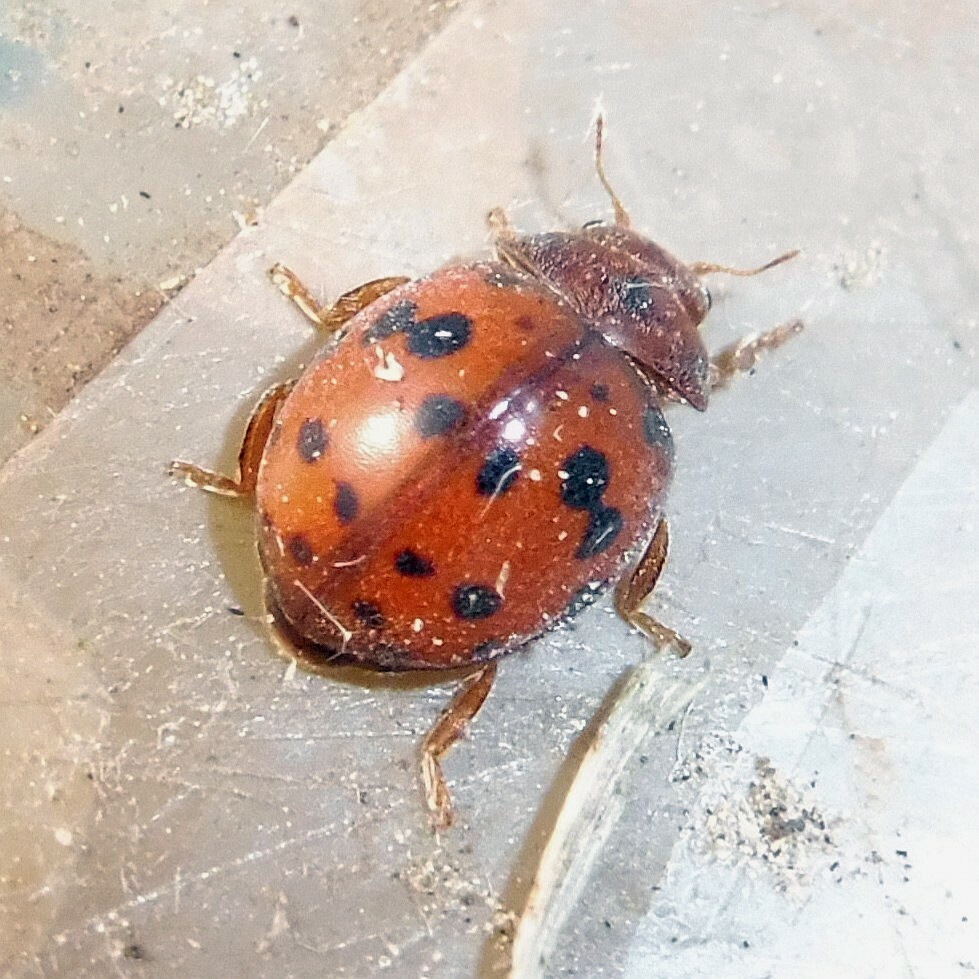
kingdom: Animalia
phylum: Arthropoda
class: Insecta
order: Coleoptera
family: Coccinellidae
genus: Subcoccinella
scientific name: Subcoccinella vigintiquatuorpunctata
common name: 24-spot ladybird
